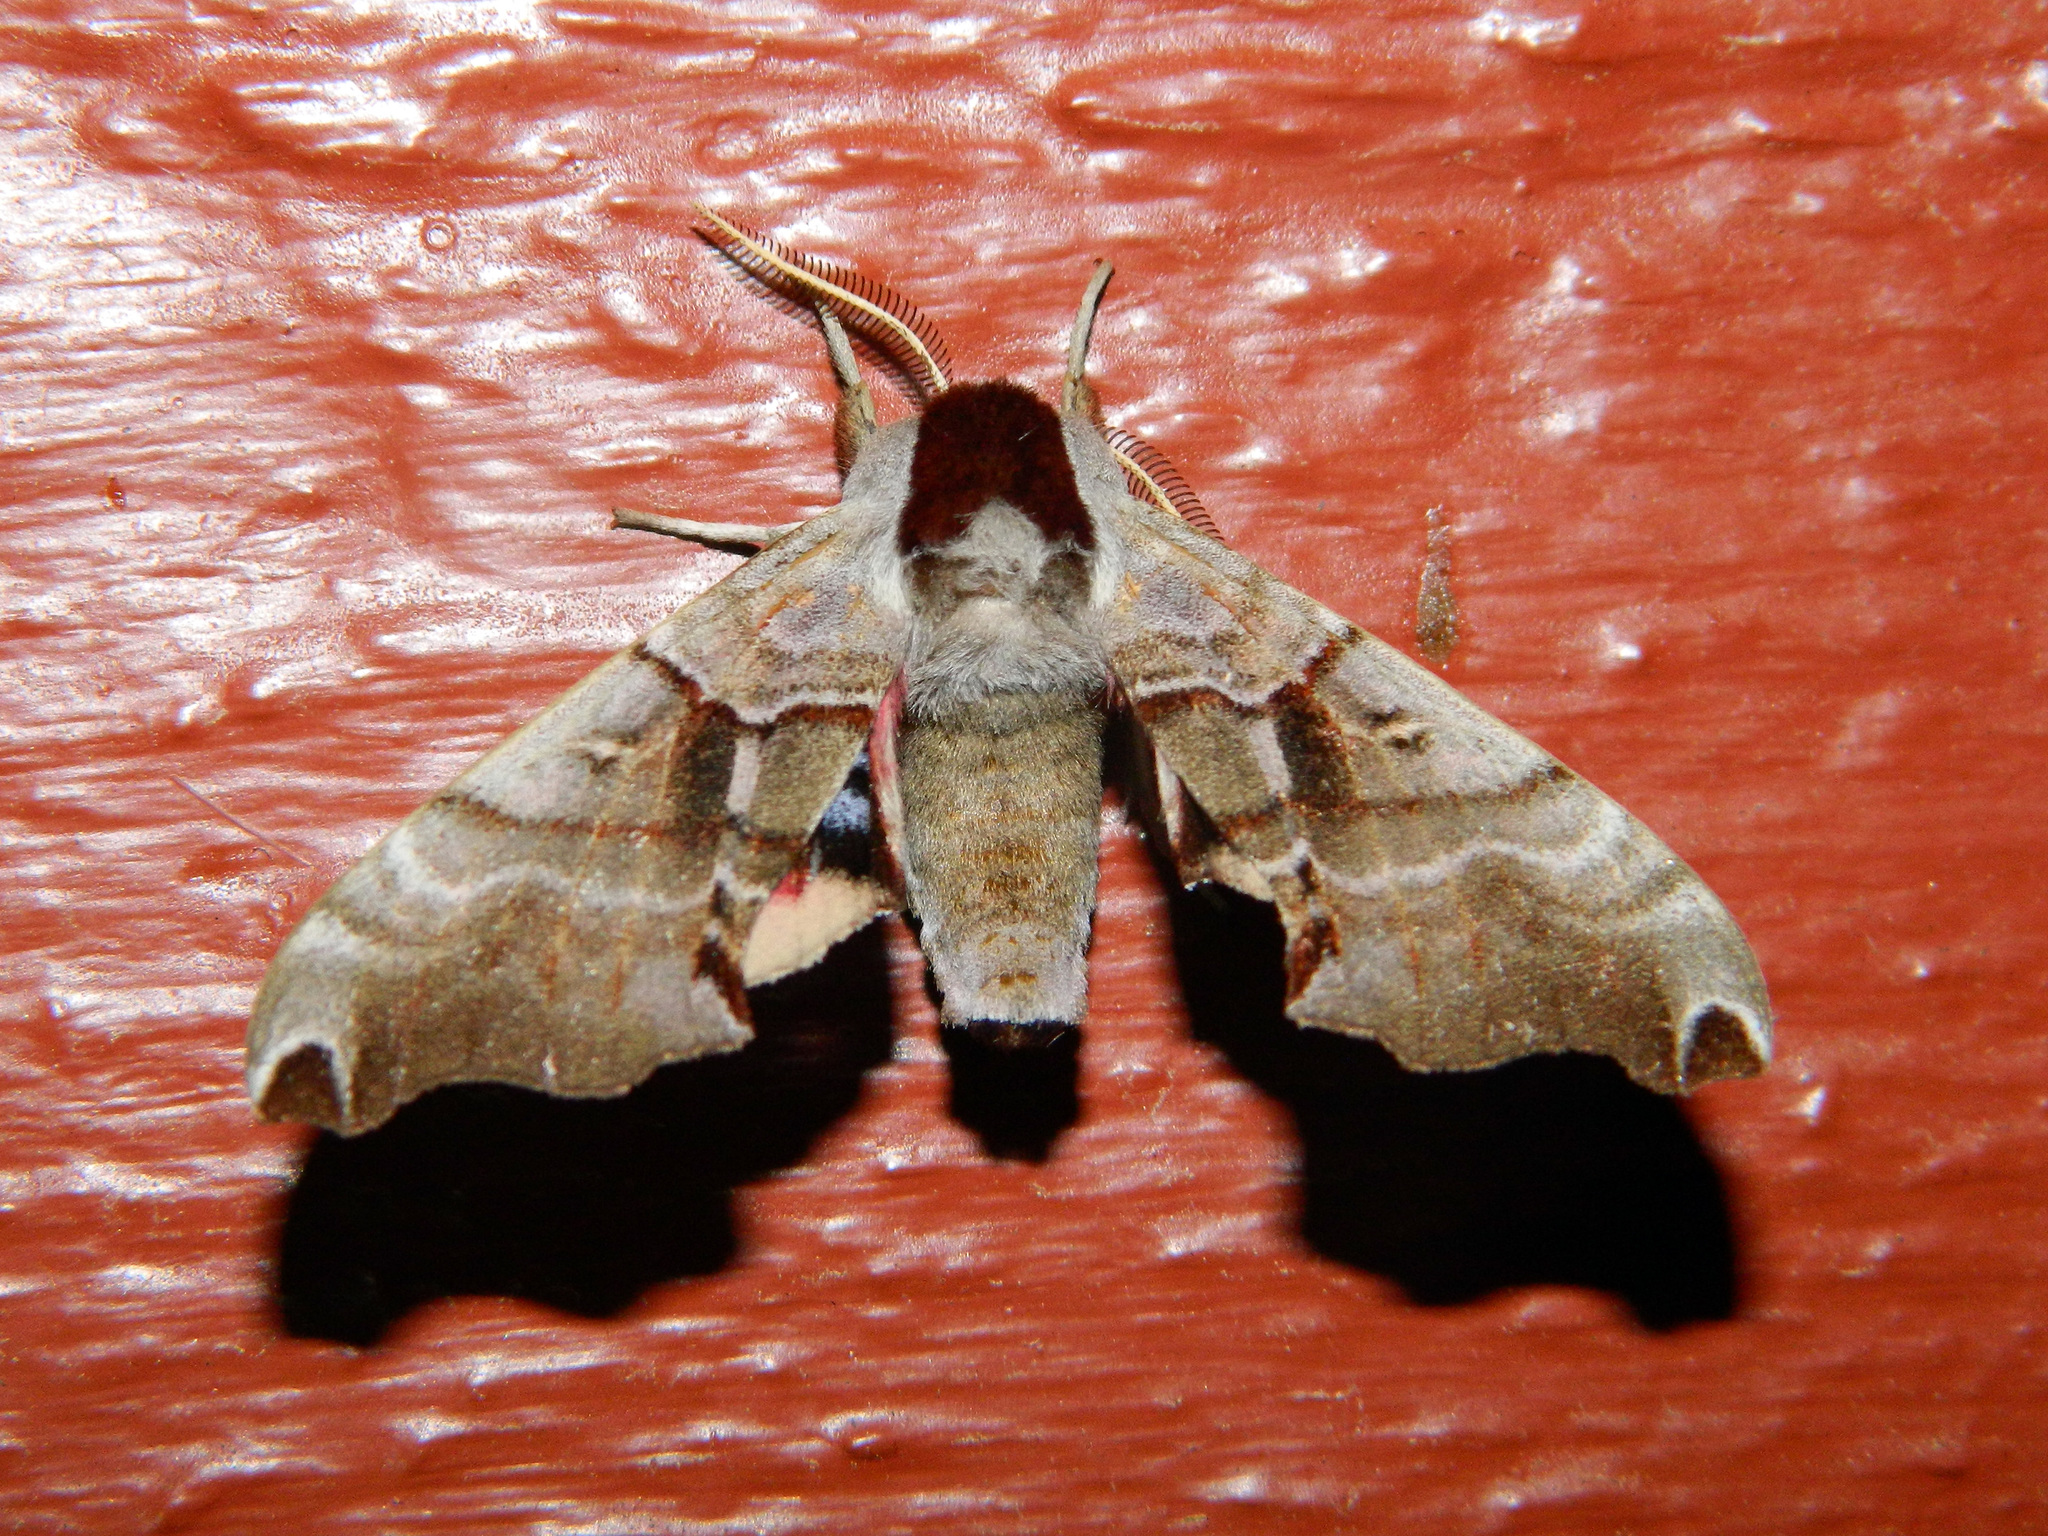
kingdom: Animalia
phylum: Arthropoda
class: Insecta
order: Lepidoptera
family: Sphingidae
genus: Smerinthus
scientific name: Smerinthus jamaicensis
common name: Twin spotted sphinx
